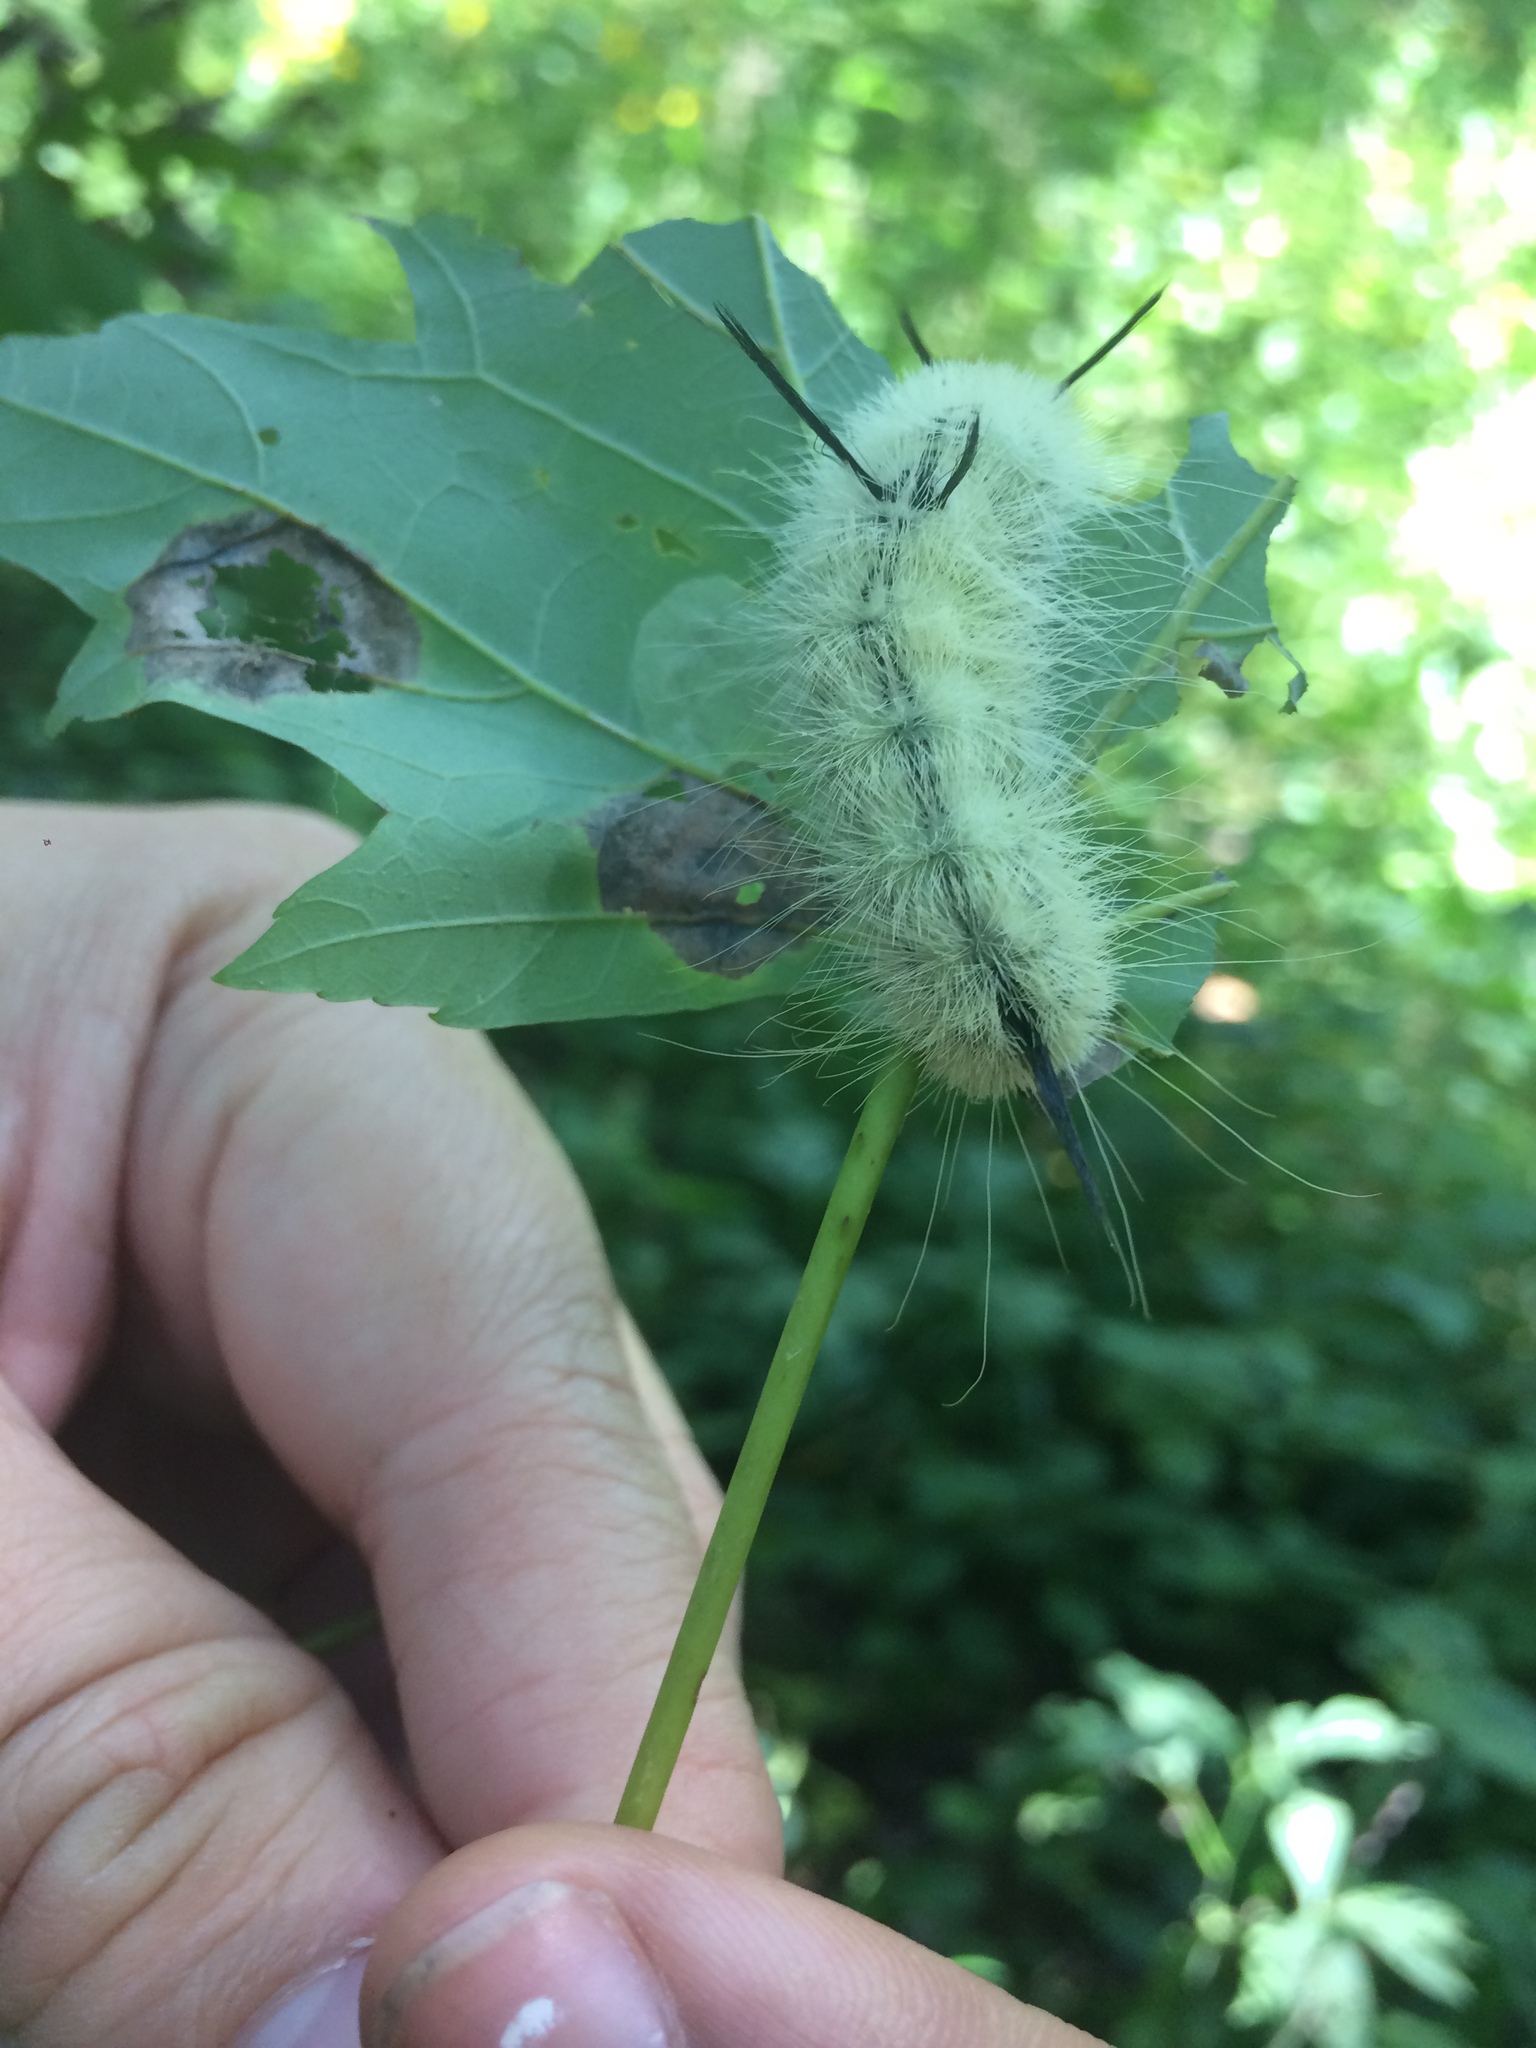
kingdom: Animalia
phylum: Arthropoda
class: Insecta
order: Lepidoptera
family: Noctuidae
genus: Acronicta
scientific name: Acronicta americana
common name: American dagger
